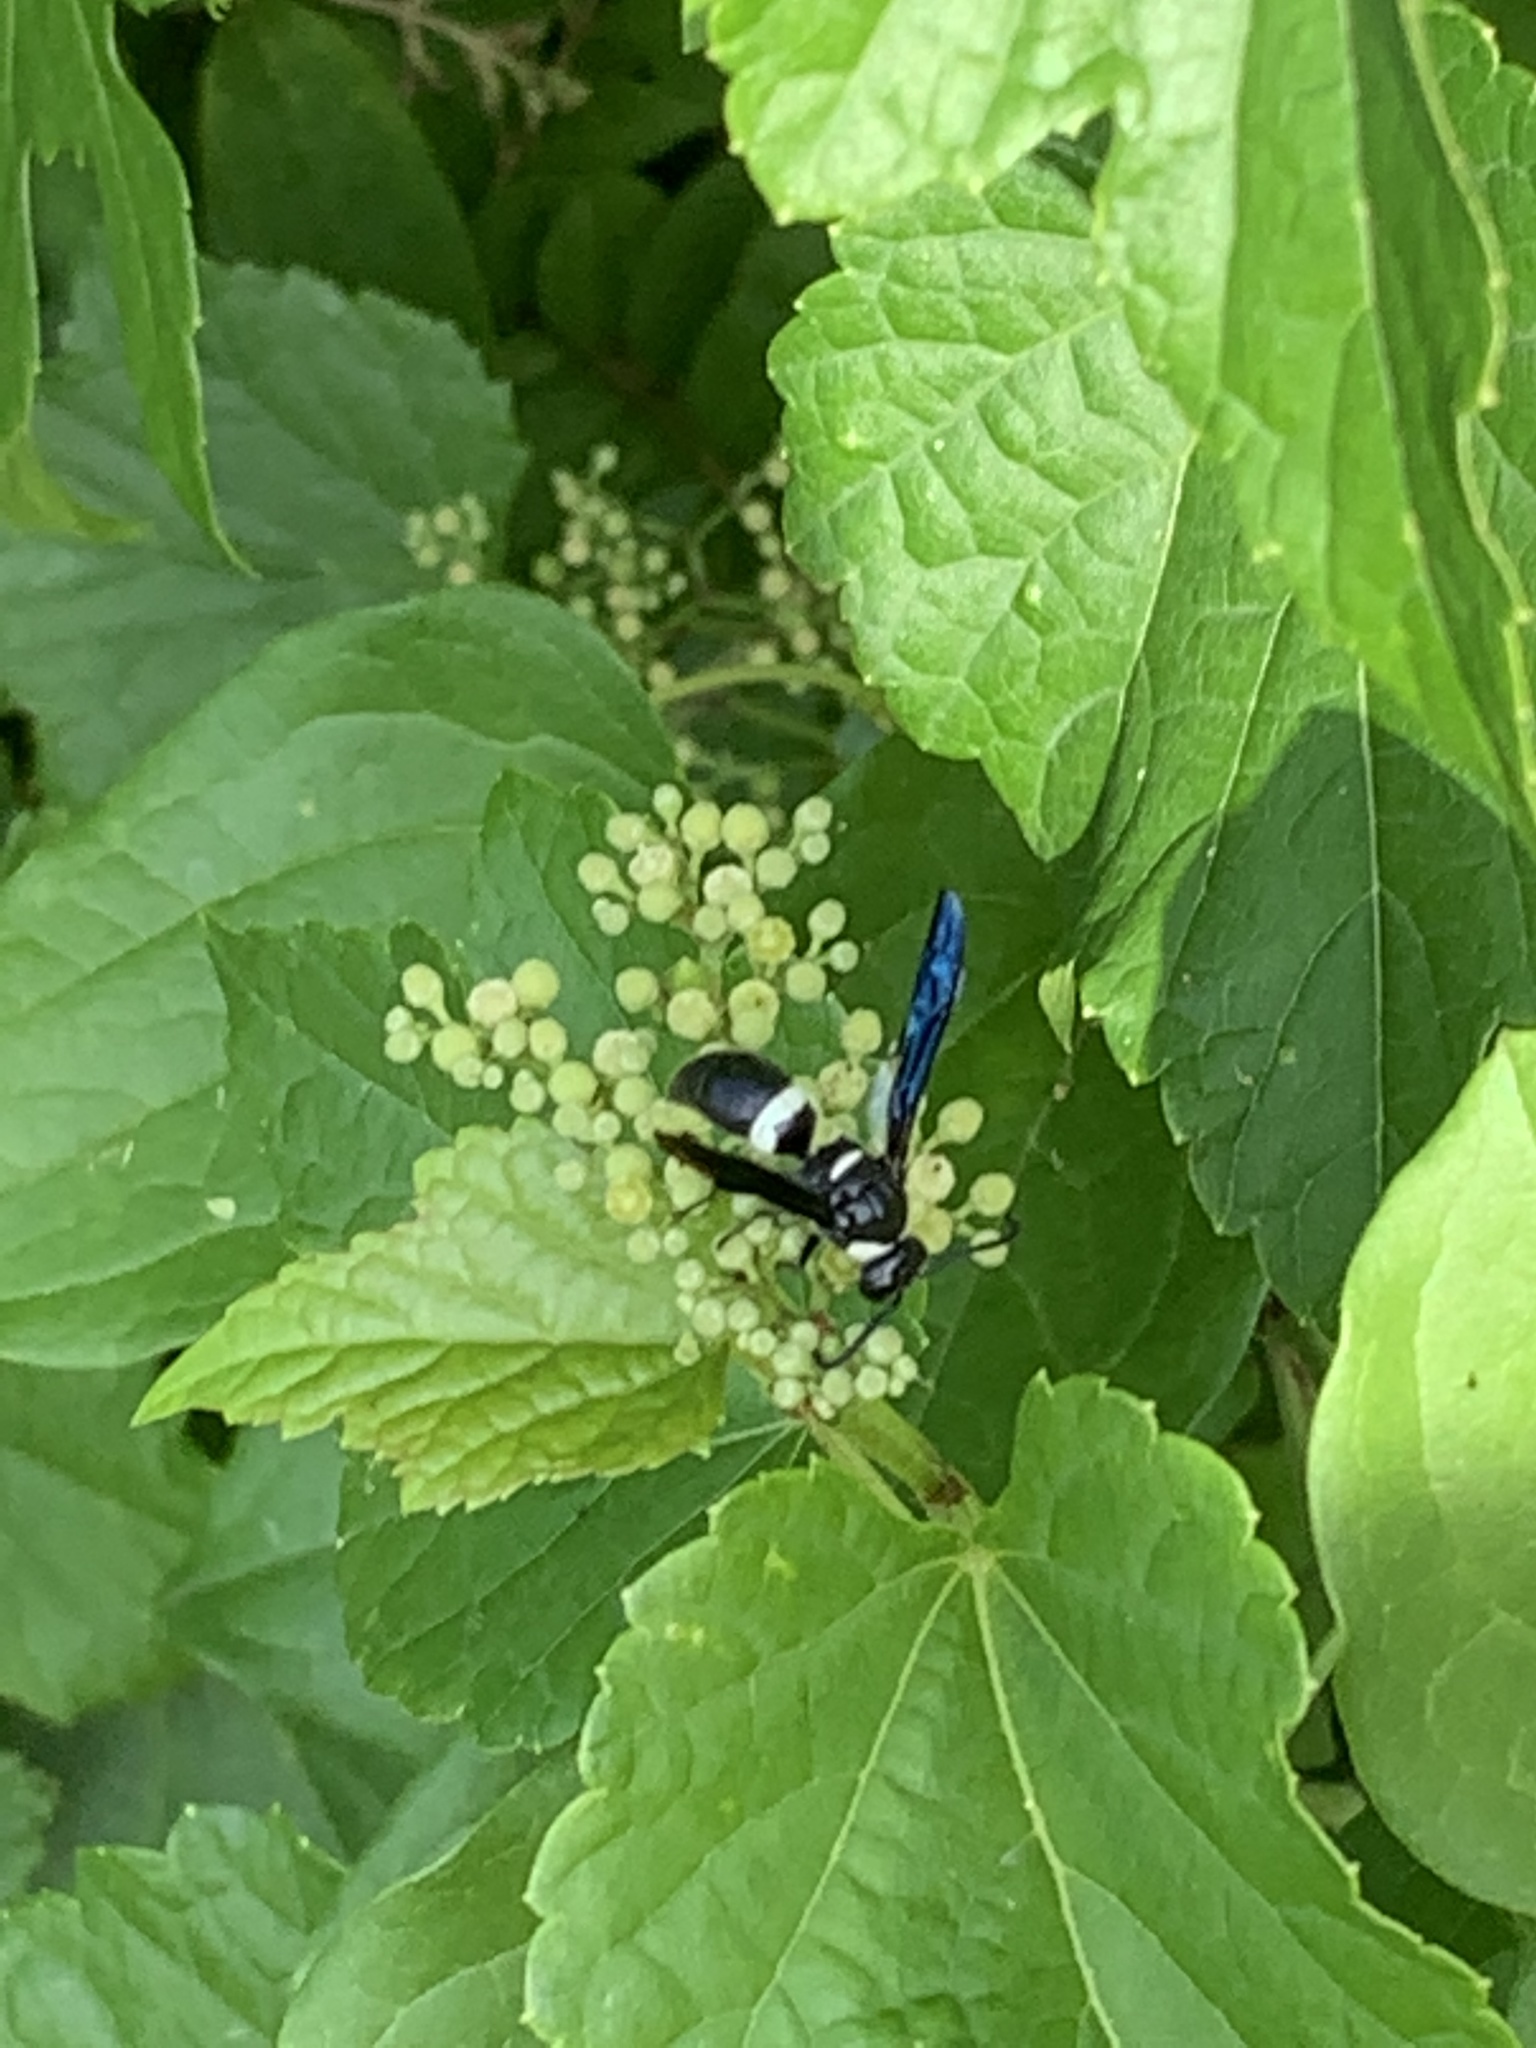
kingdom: Animalia
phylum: Arthropoda
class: Insecta
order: Hymenoptera
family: Eumenidae
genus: Monobia
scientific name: Monobia quadridens
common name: Four-toothed mason wasp
